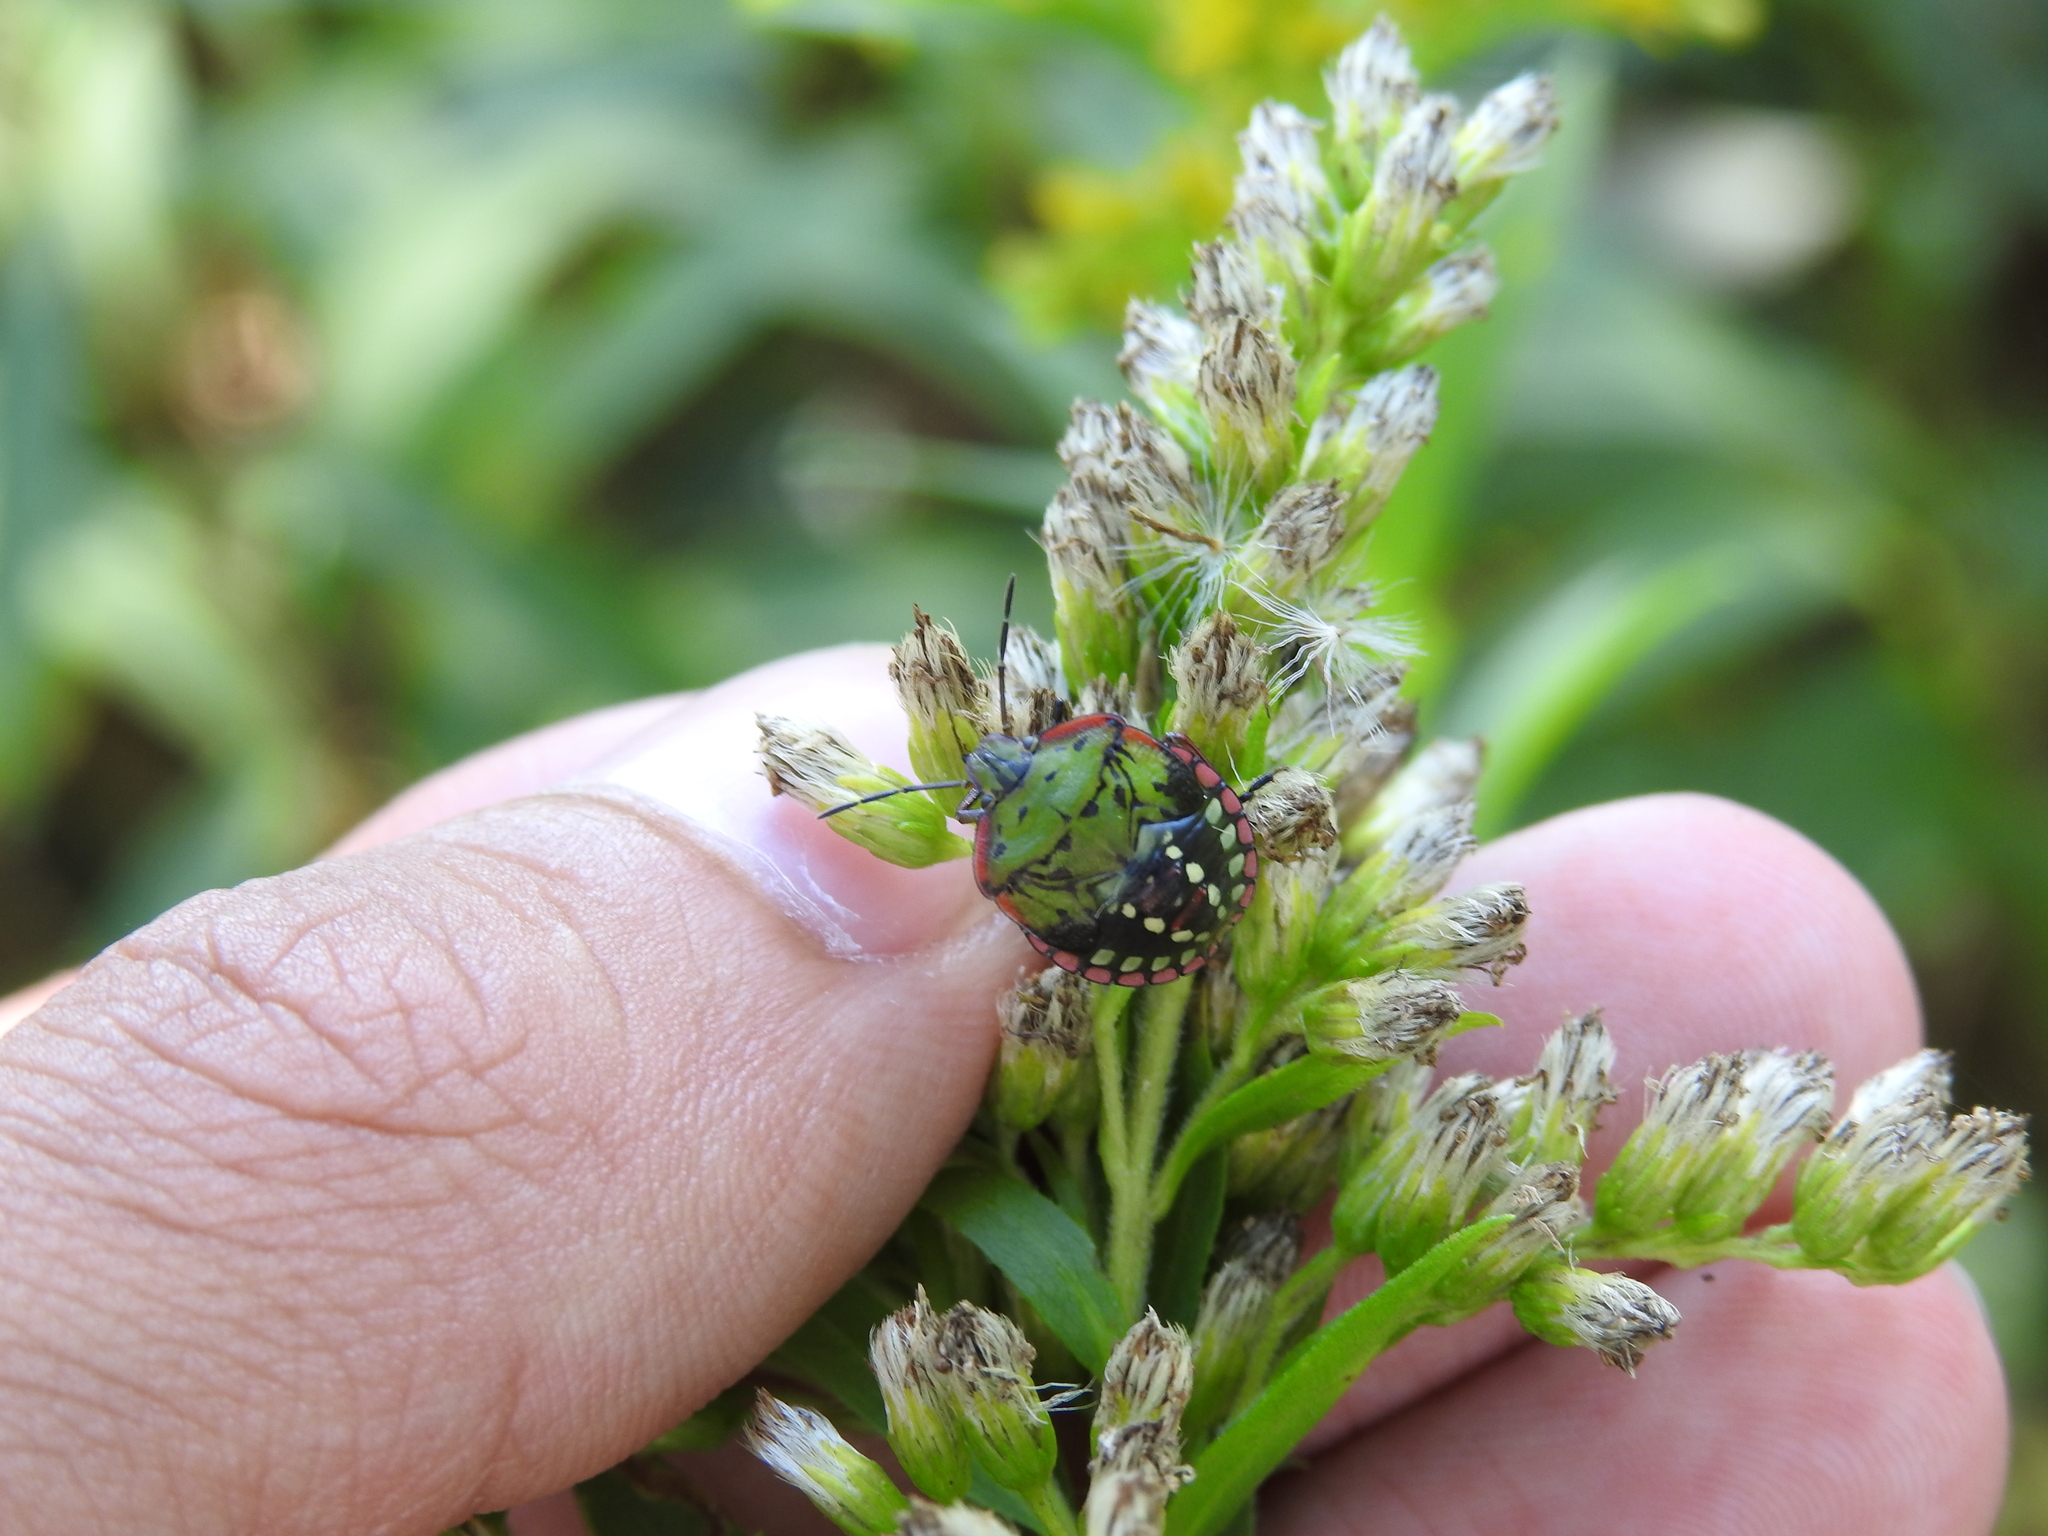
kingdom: Animalia
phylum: Arthropoda
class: Insecta
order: Hemiptera
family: Pentatomidae
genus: Nezara
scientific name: Nezara viridula
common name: Southern green stink bug
